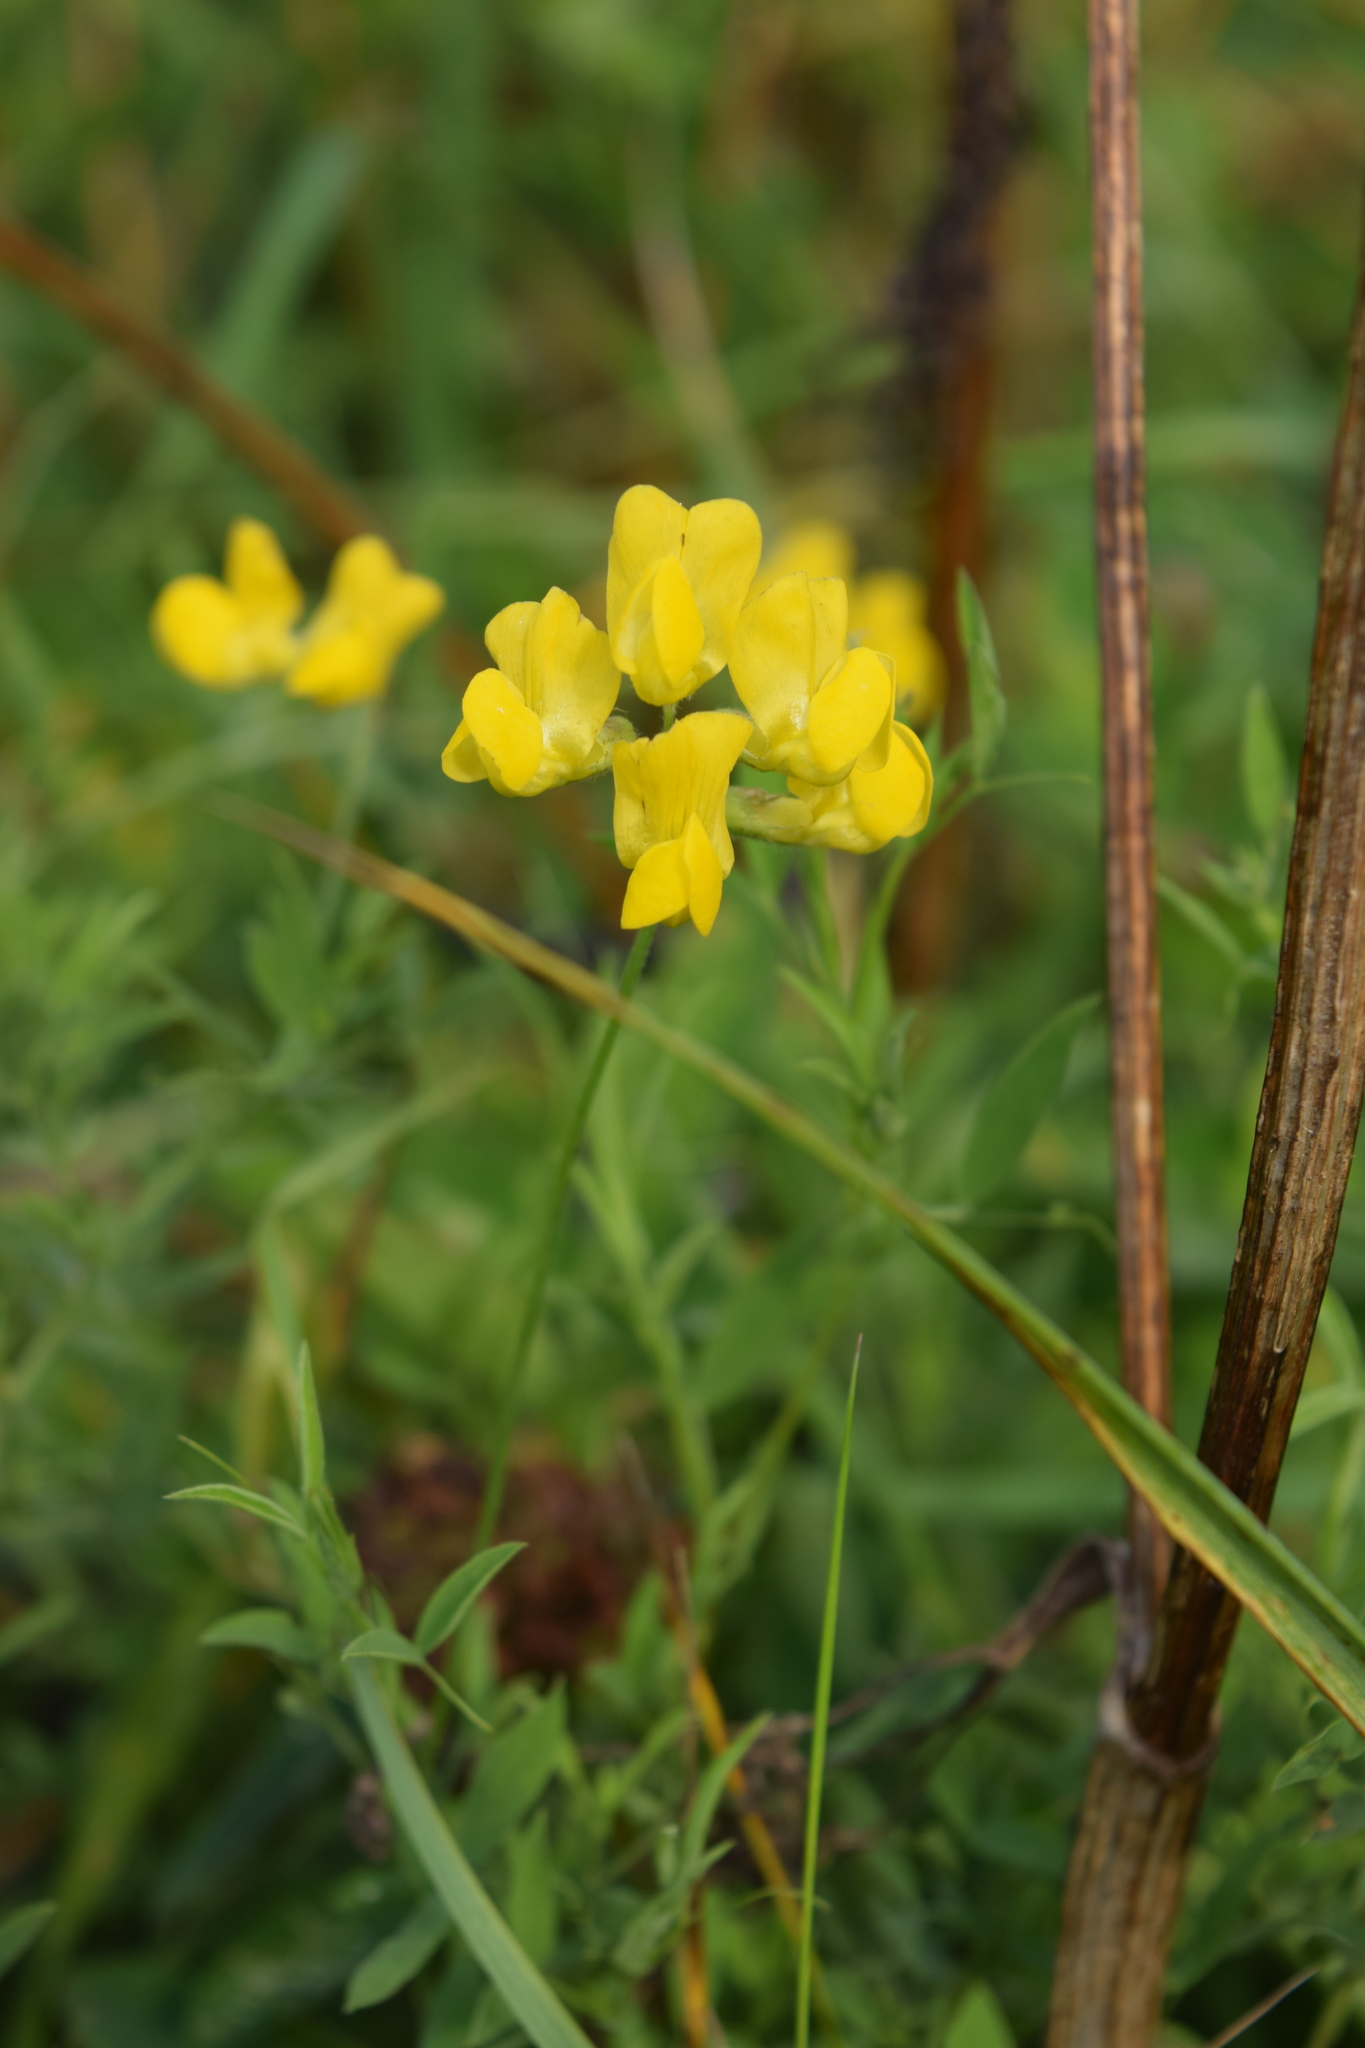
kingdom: Plantae
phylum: Tracheophyta
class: Magnoliopsida
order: Fabales
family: Fabaceae
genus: Lathyrus
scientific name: Lathyrus pratensis
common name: Meadow vetchling
